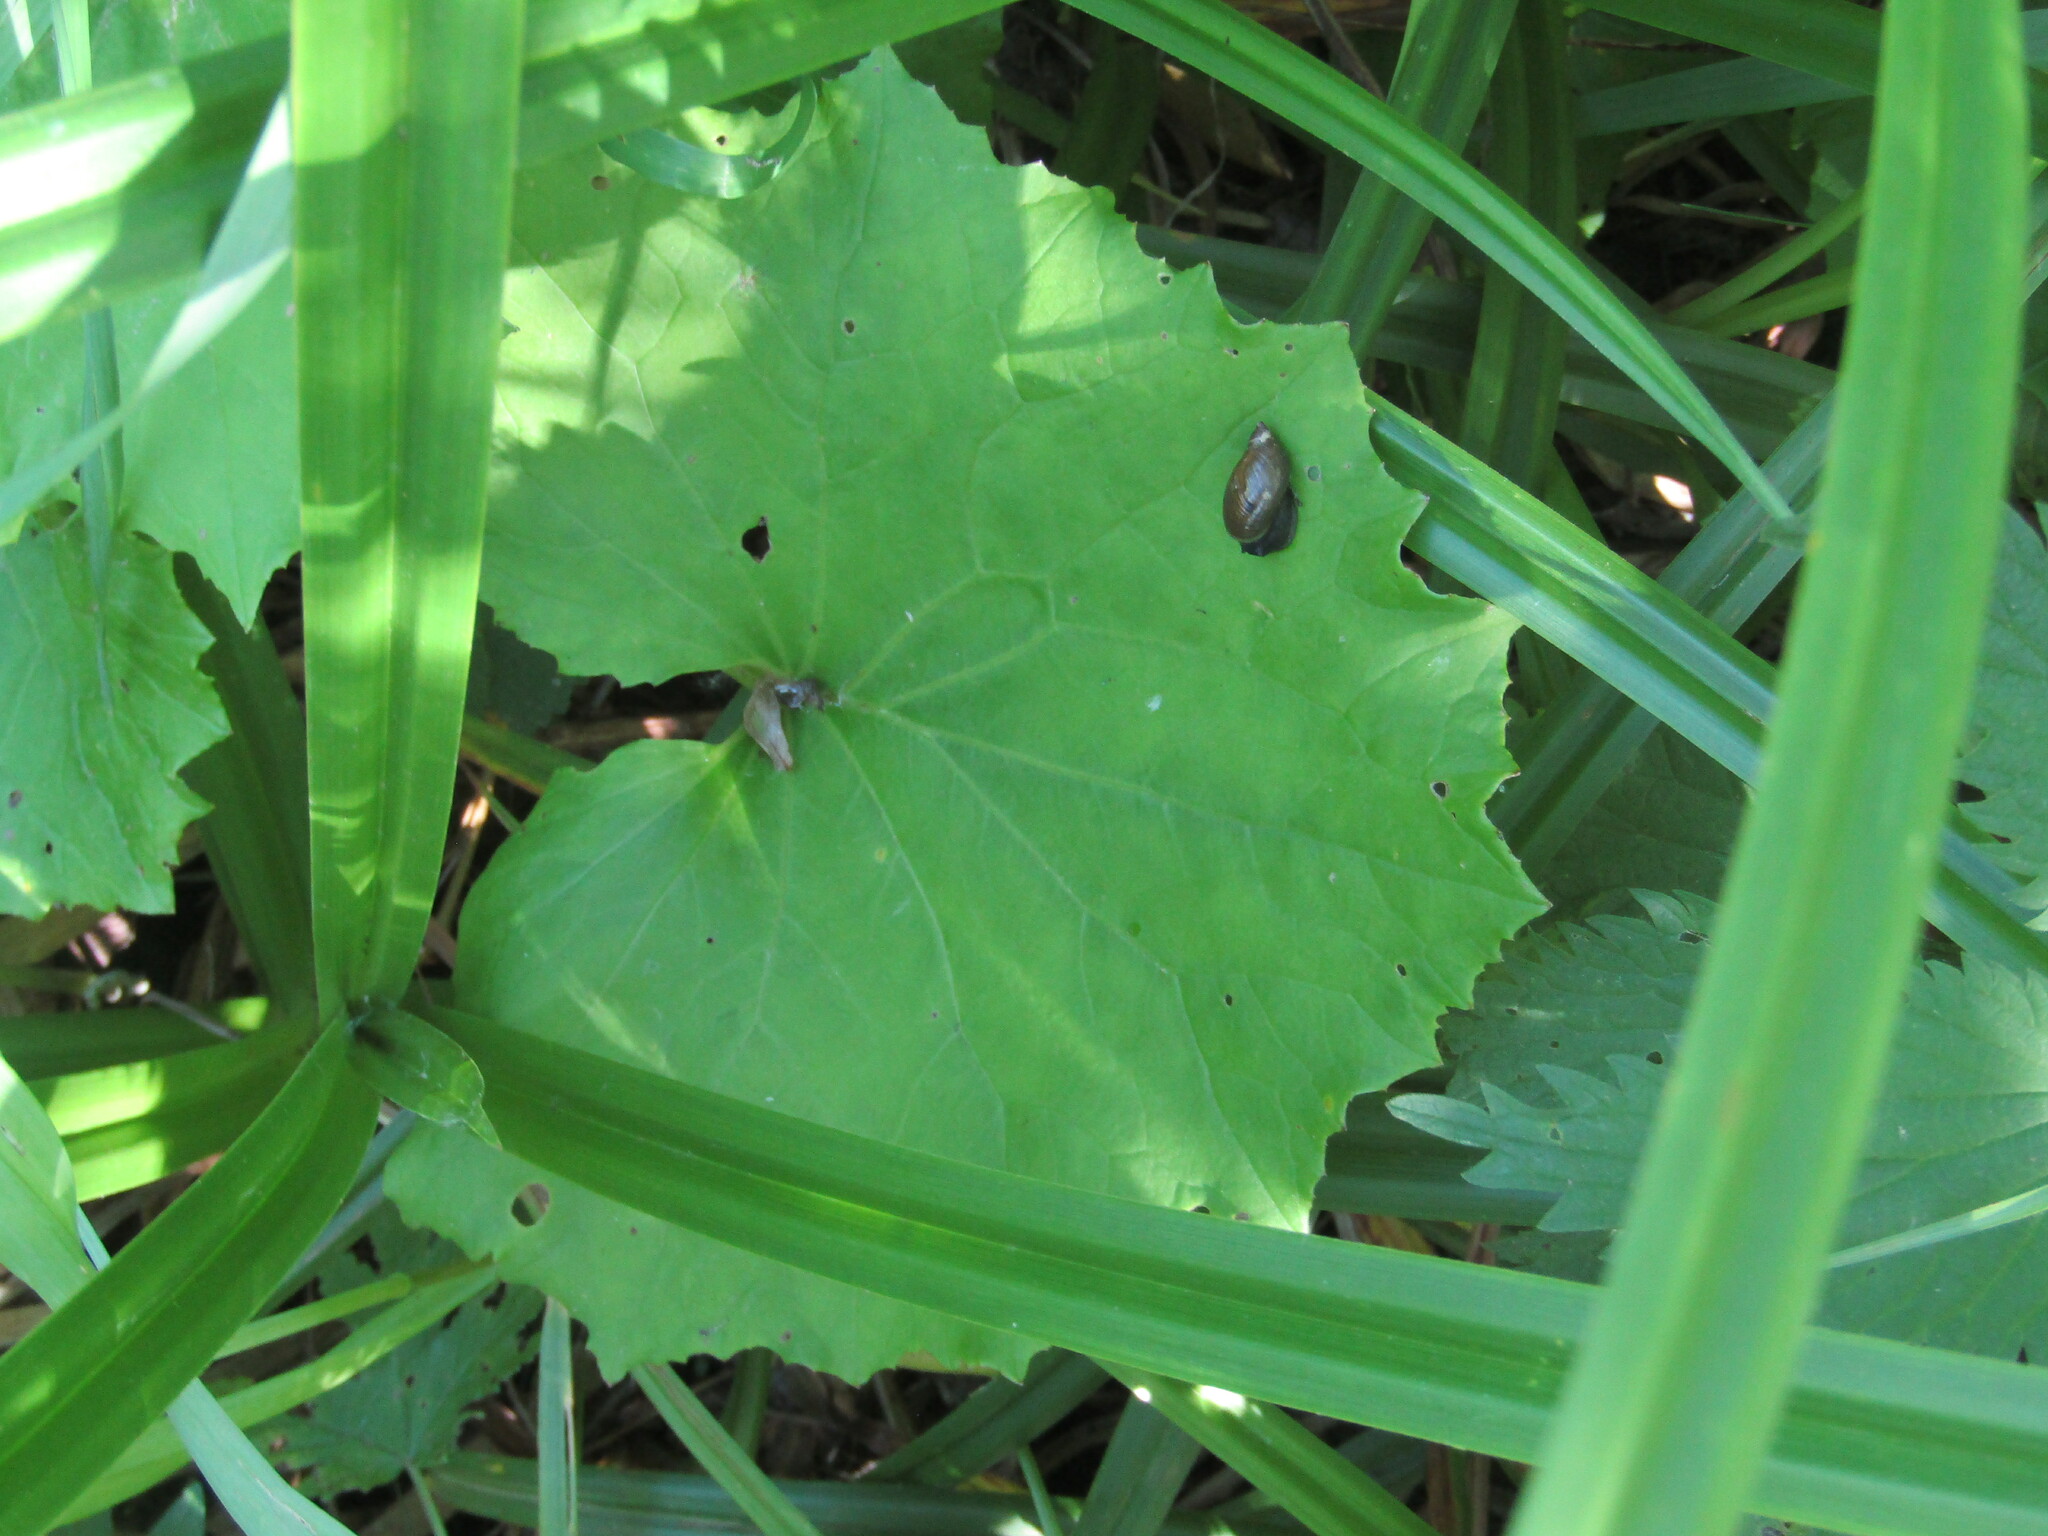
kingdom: Plantae
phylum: Tracheophyta
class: Magnoliopsida
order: Asterales
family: Asteraceae
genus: Tussilago
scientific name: Tussilago farfara
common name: Coltsfoot
